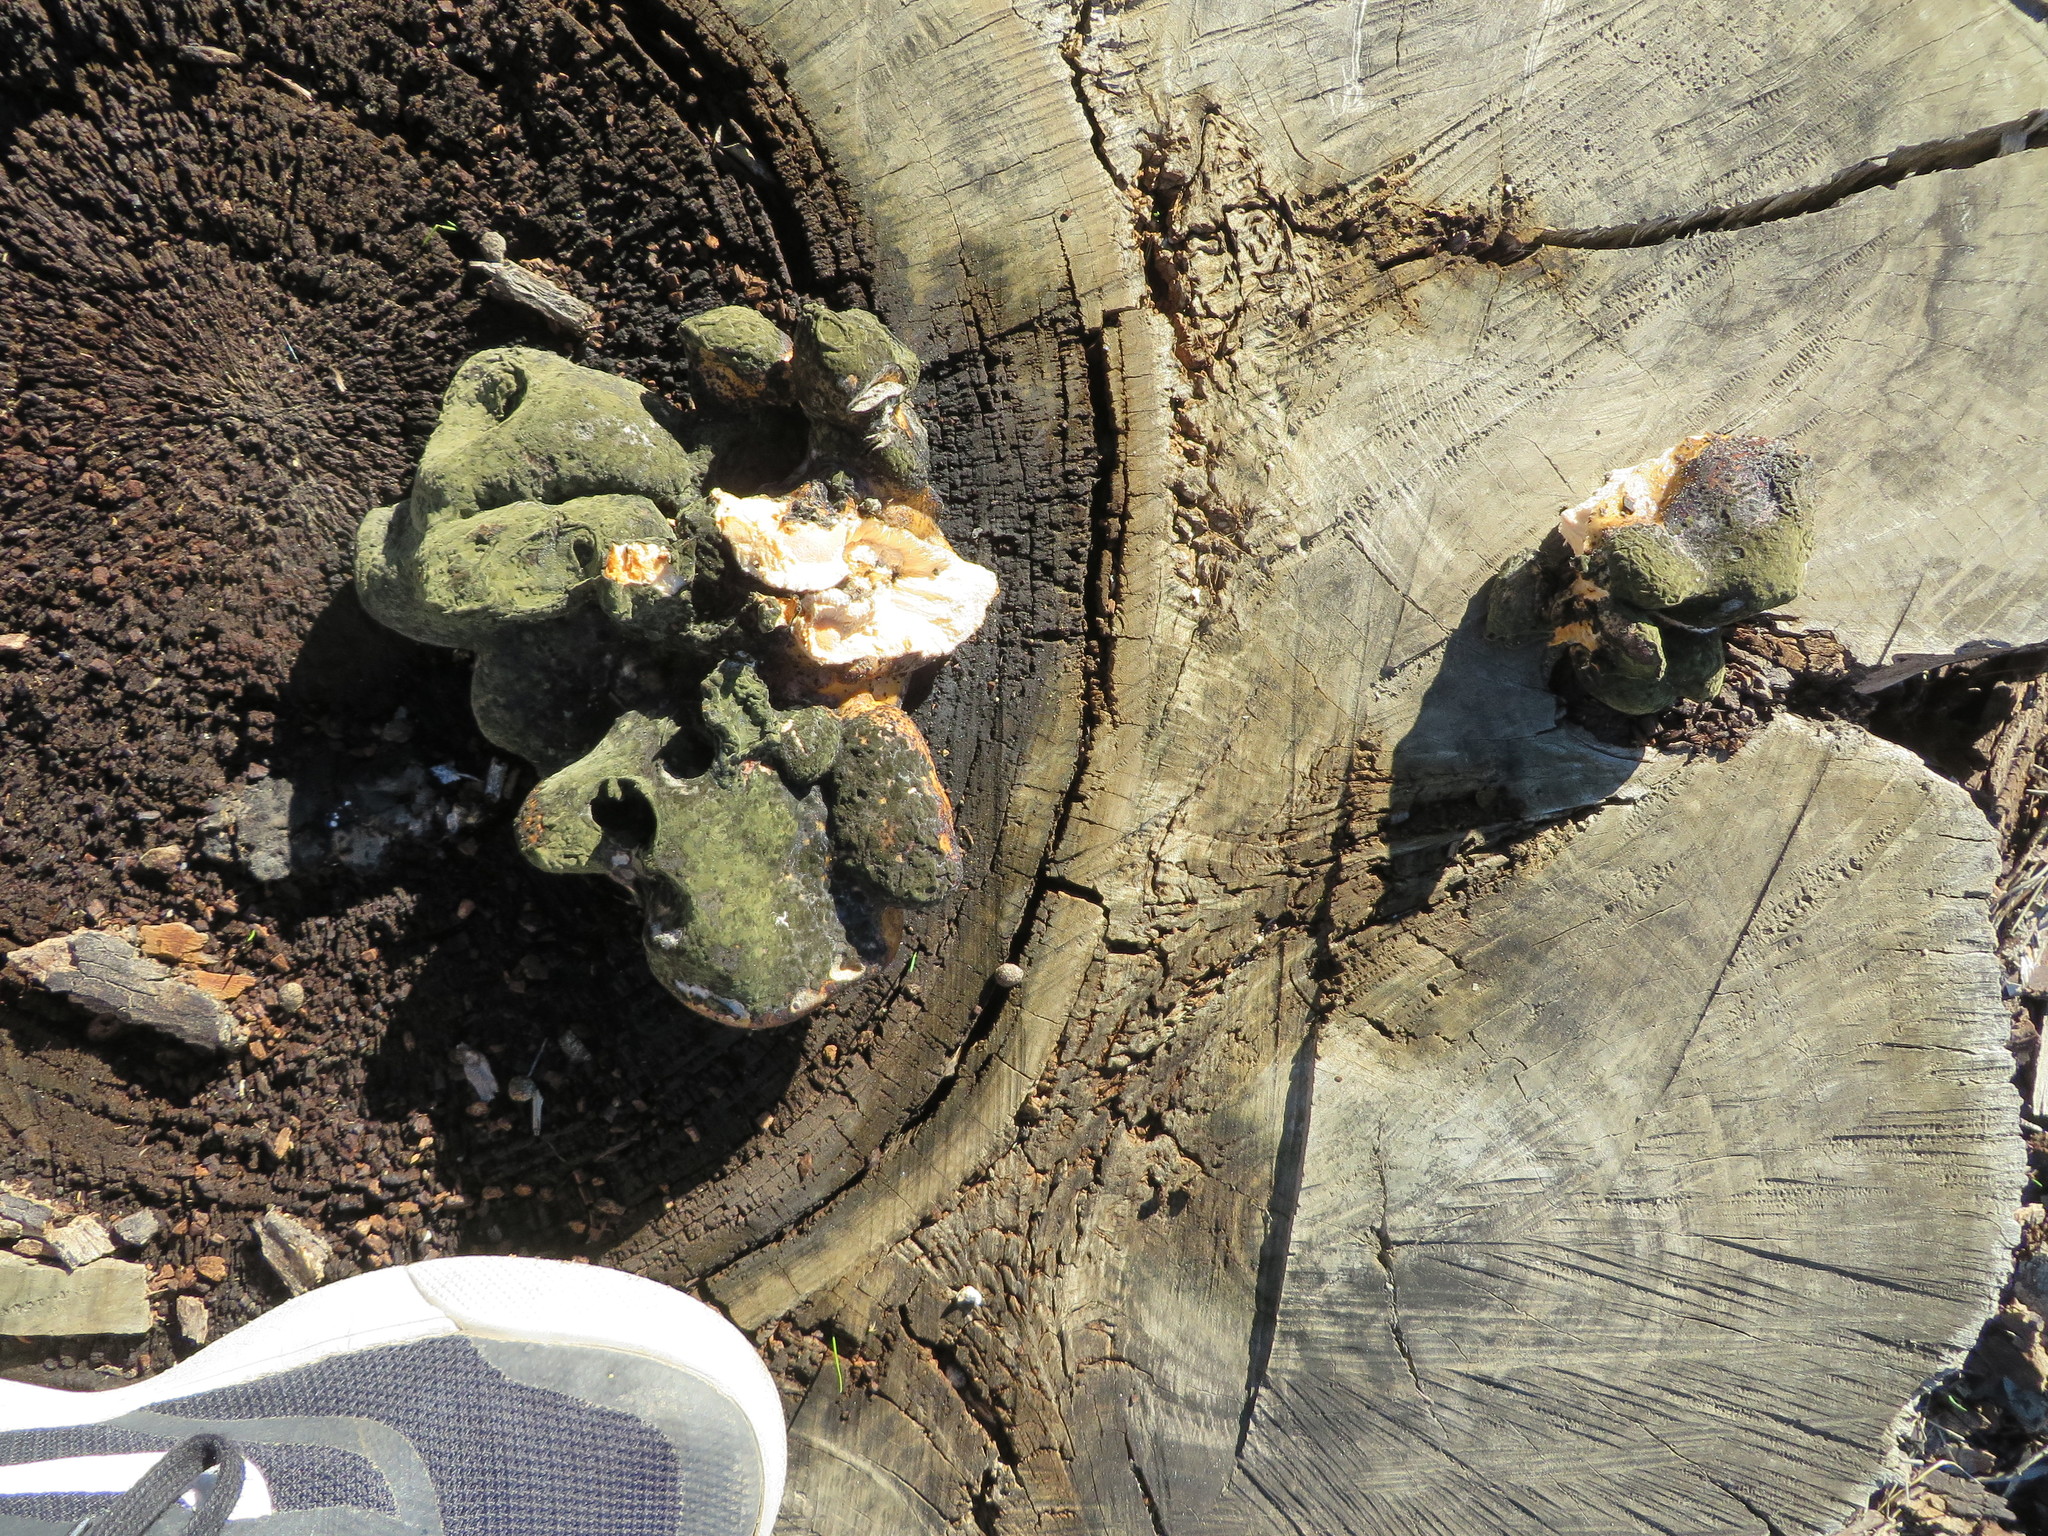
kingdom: Fungi
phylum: Basidiomycota
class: Agaricomycetes
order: Polyporales
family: Laetiporaceae
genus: Laetiporus
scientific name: Laetiporus gilbertsonii
